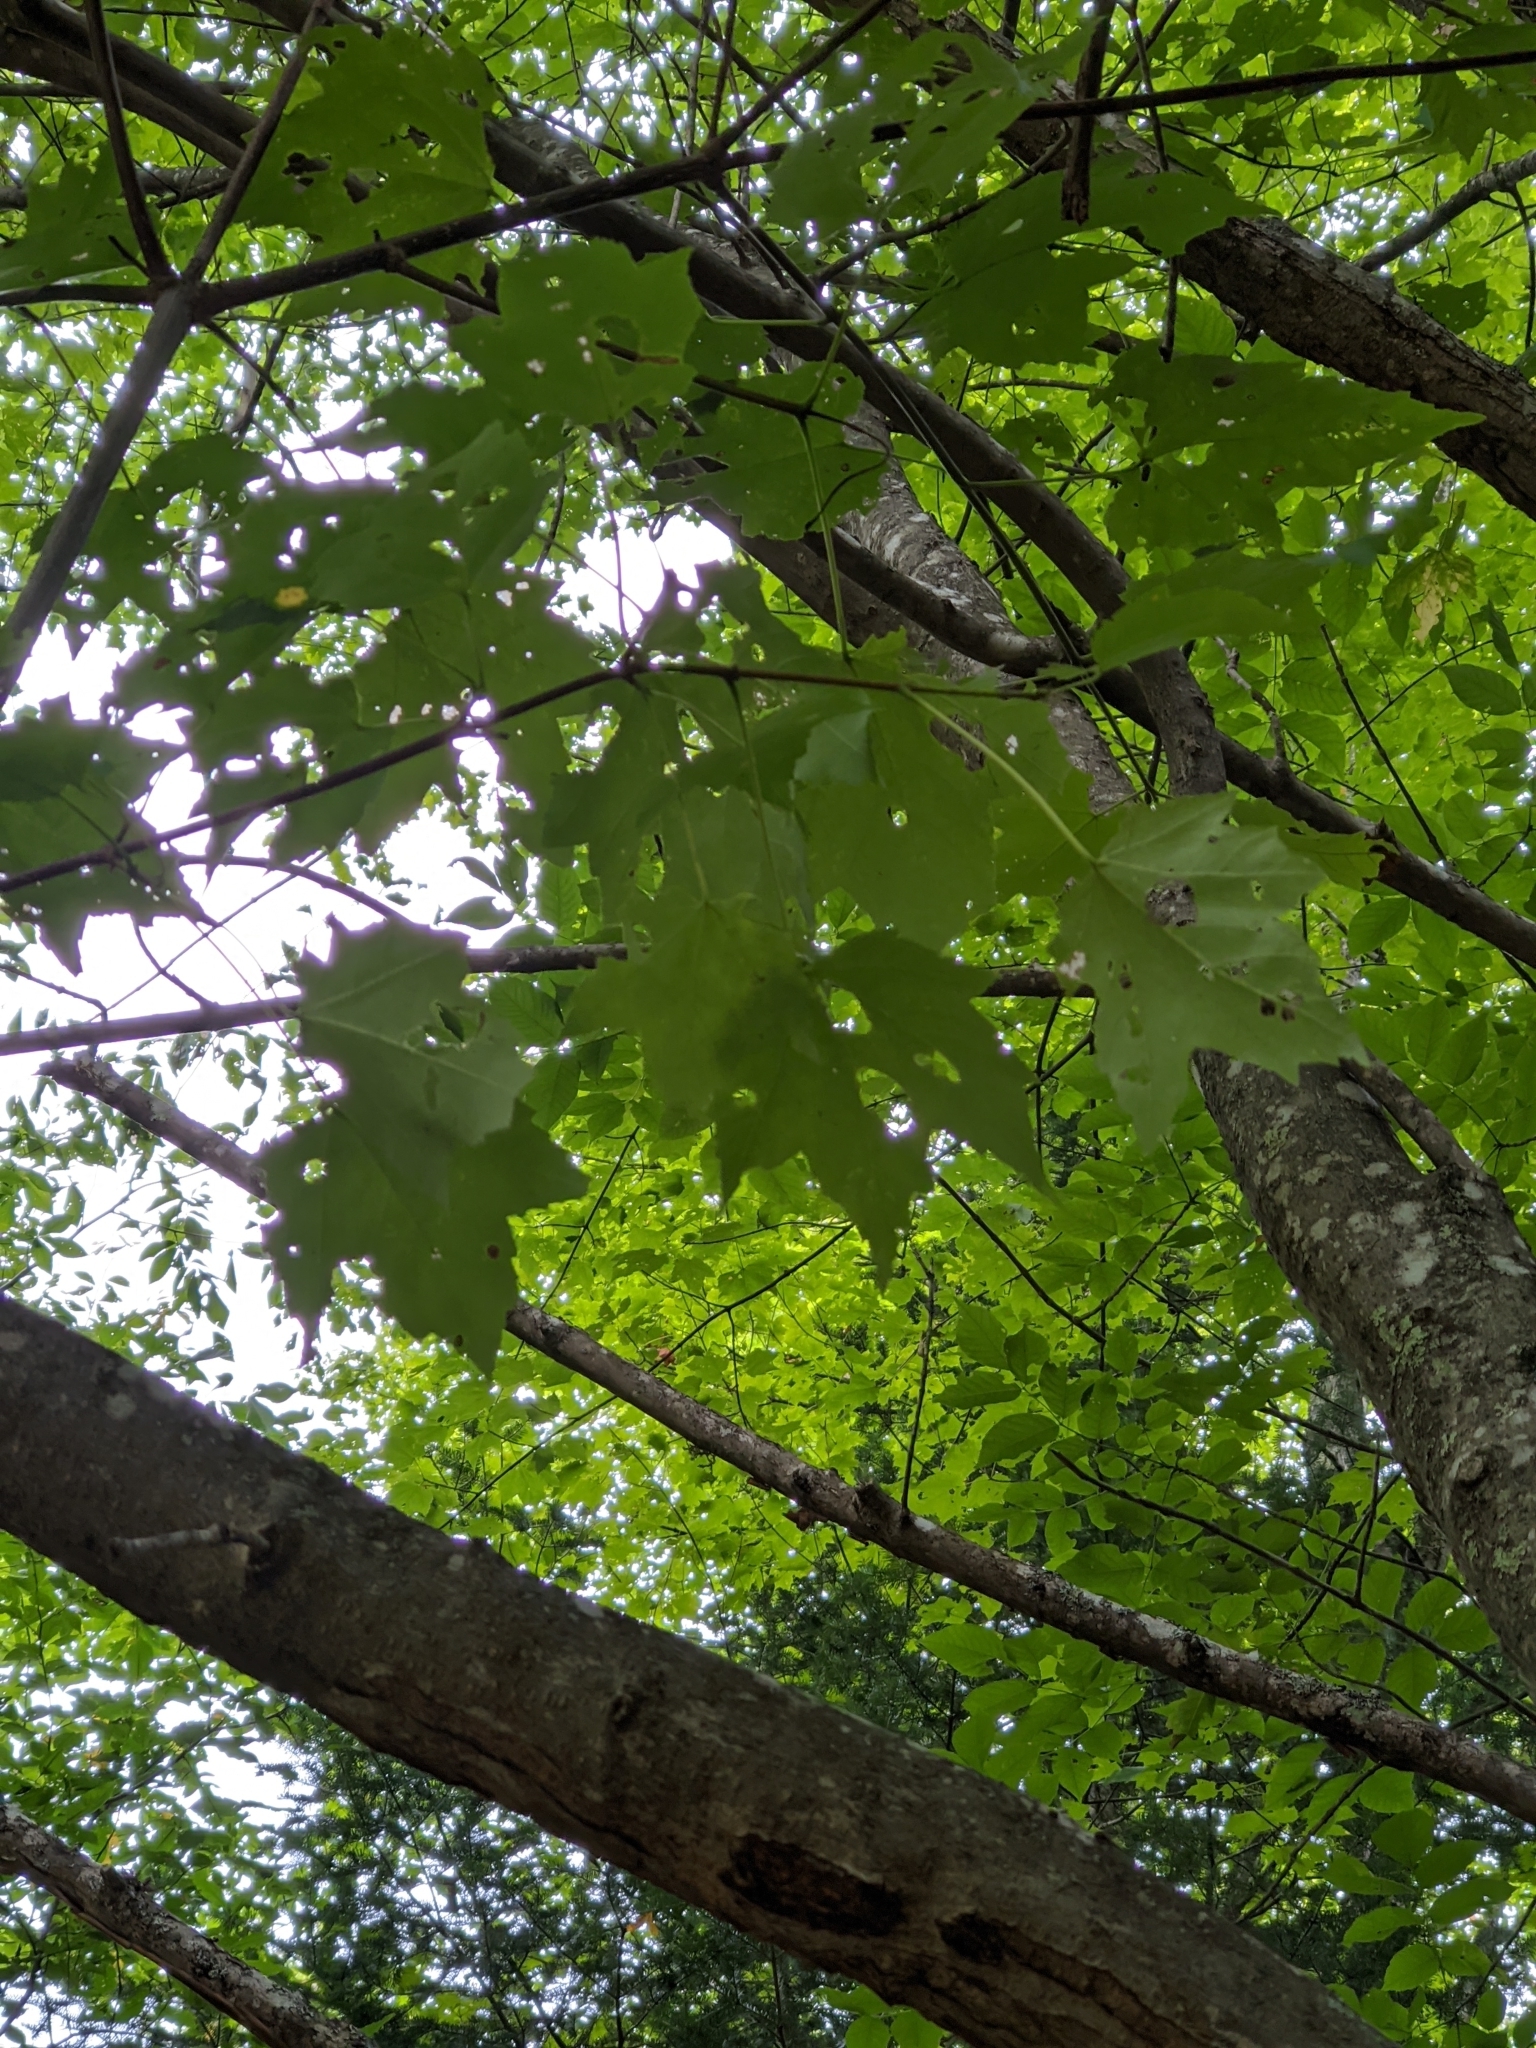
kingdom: Plantae
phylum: Tracheophyta
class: Magnoliopsida
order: Sapindales
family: Sapindaceae
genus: Acer
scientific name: Acer rubrum
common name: Red maple
